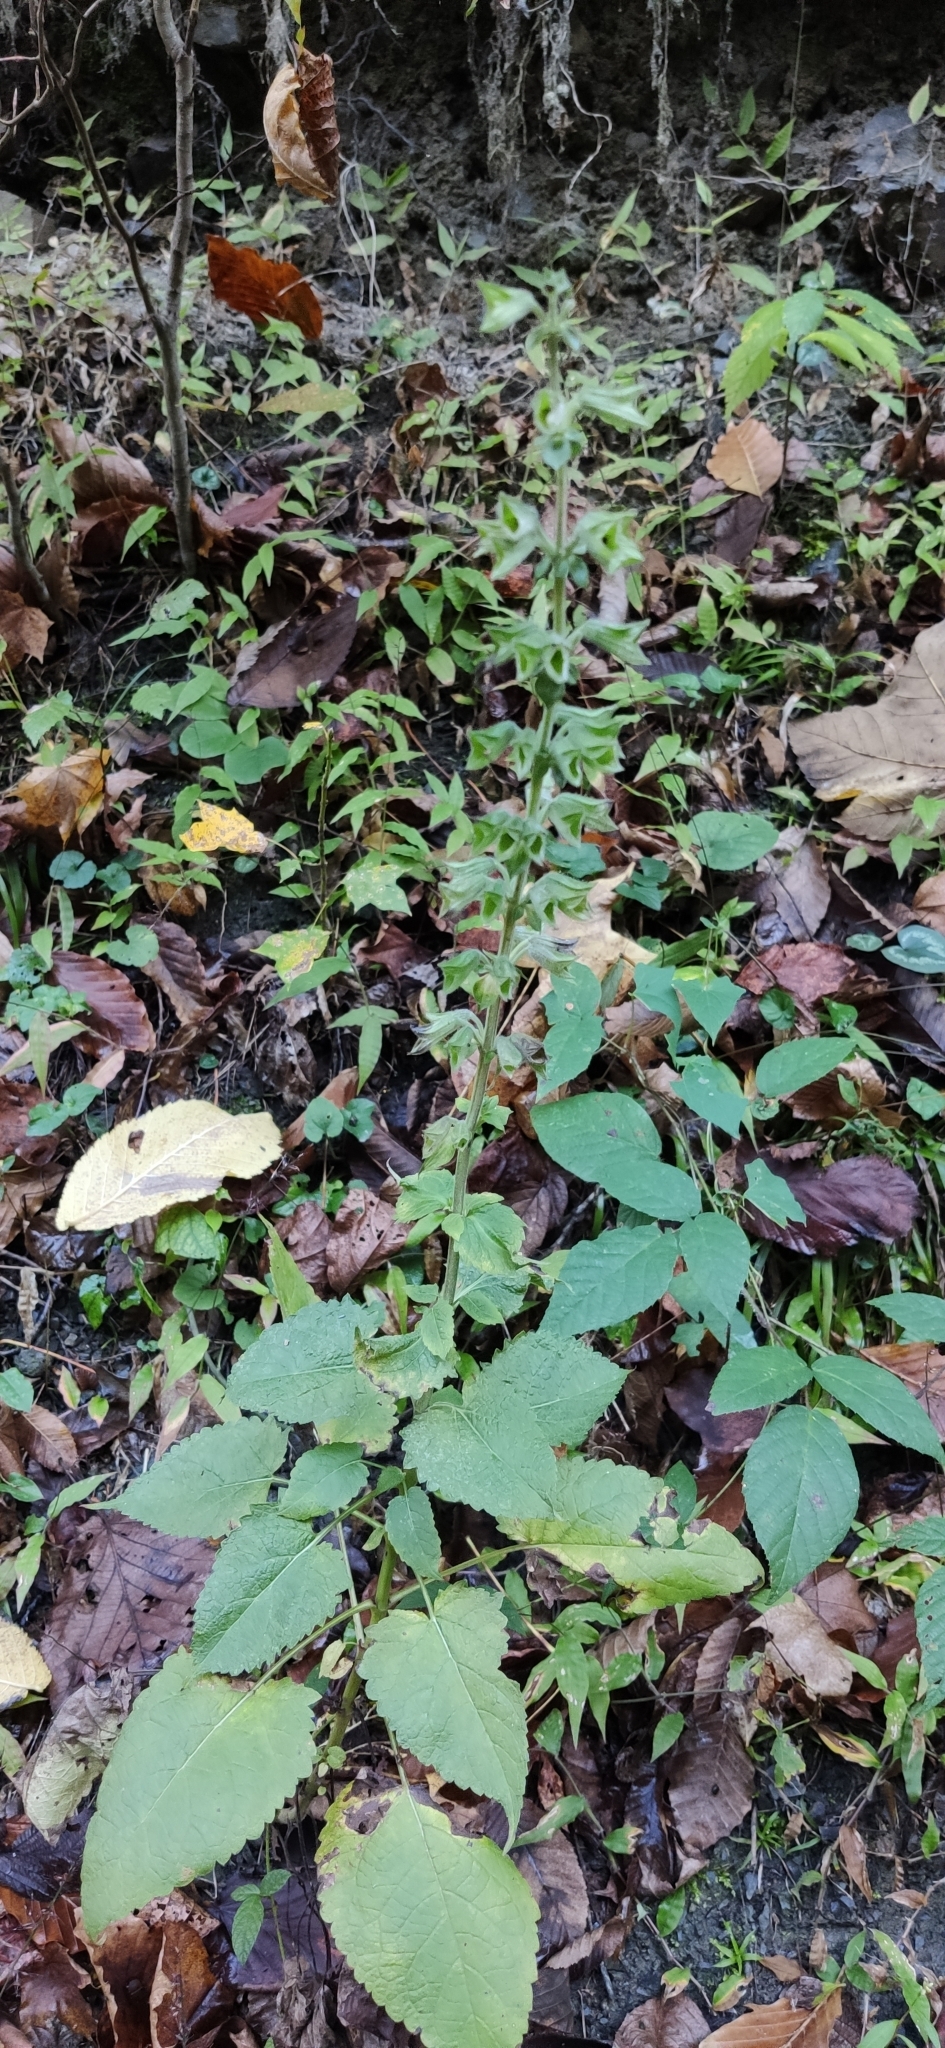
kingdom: Plantae
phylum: Tracheophyta
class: Magnoliopsida
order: Lamiales
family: Lamiaceae
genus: Salvia
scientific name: Salvia glutinosa
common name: Sticky clary
